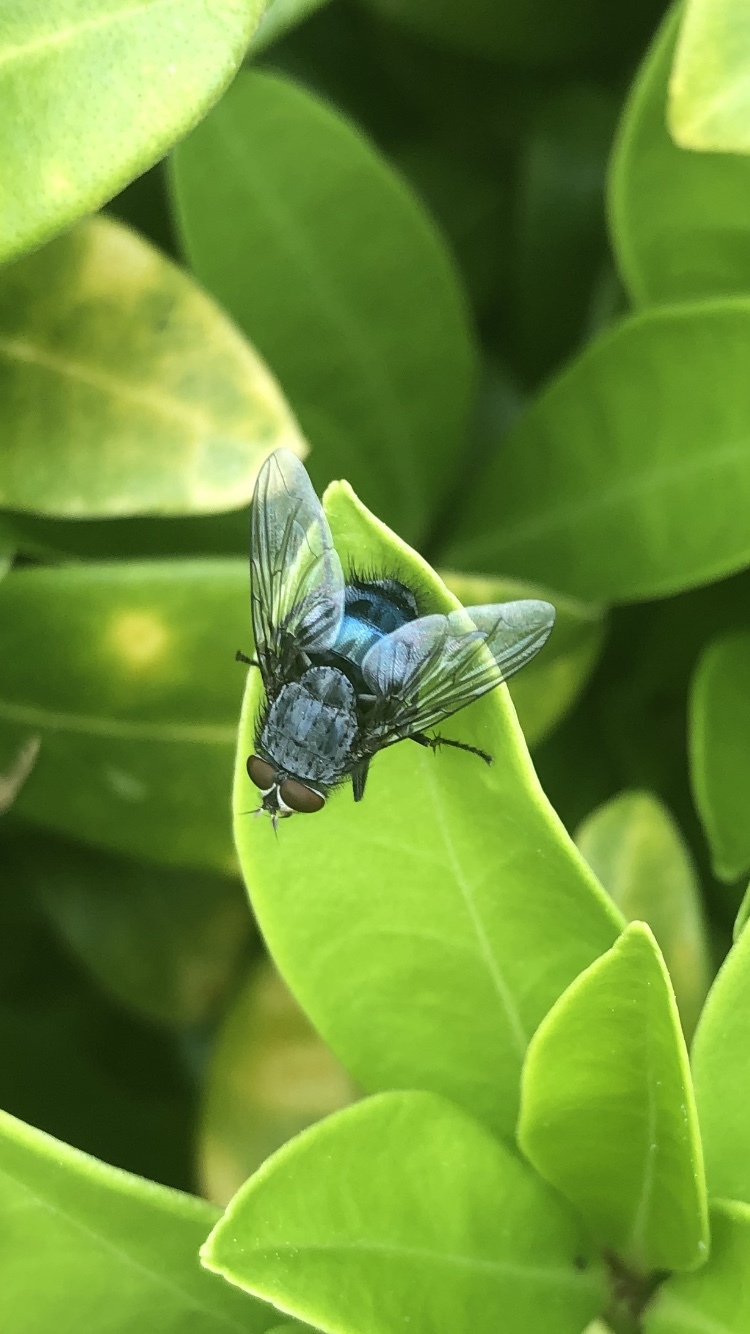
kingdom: Animalia
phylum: Arthropoda
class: Insecta
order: Diptera
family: Calliphoridae
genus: Calliphora
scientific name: Calliphora vicina
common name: Common blow flie
